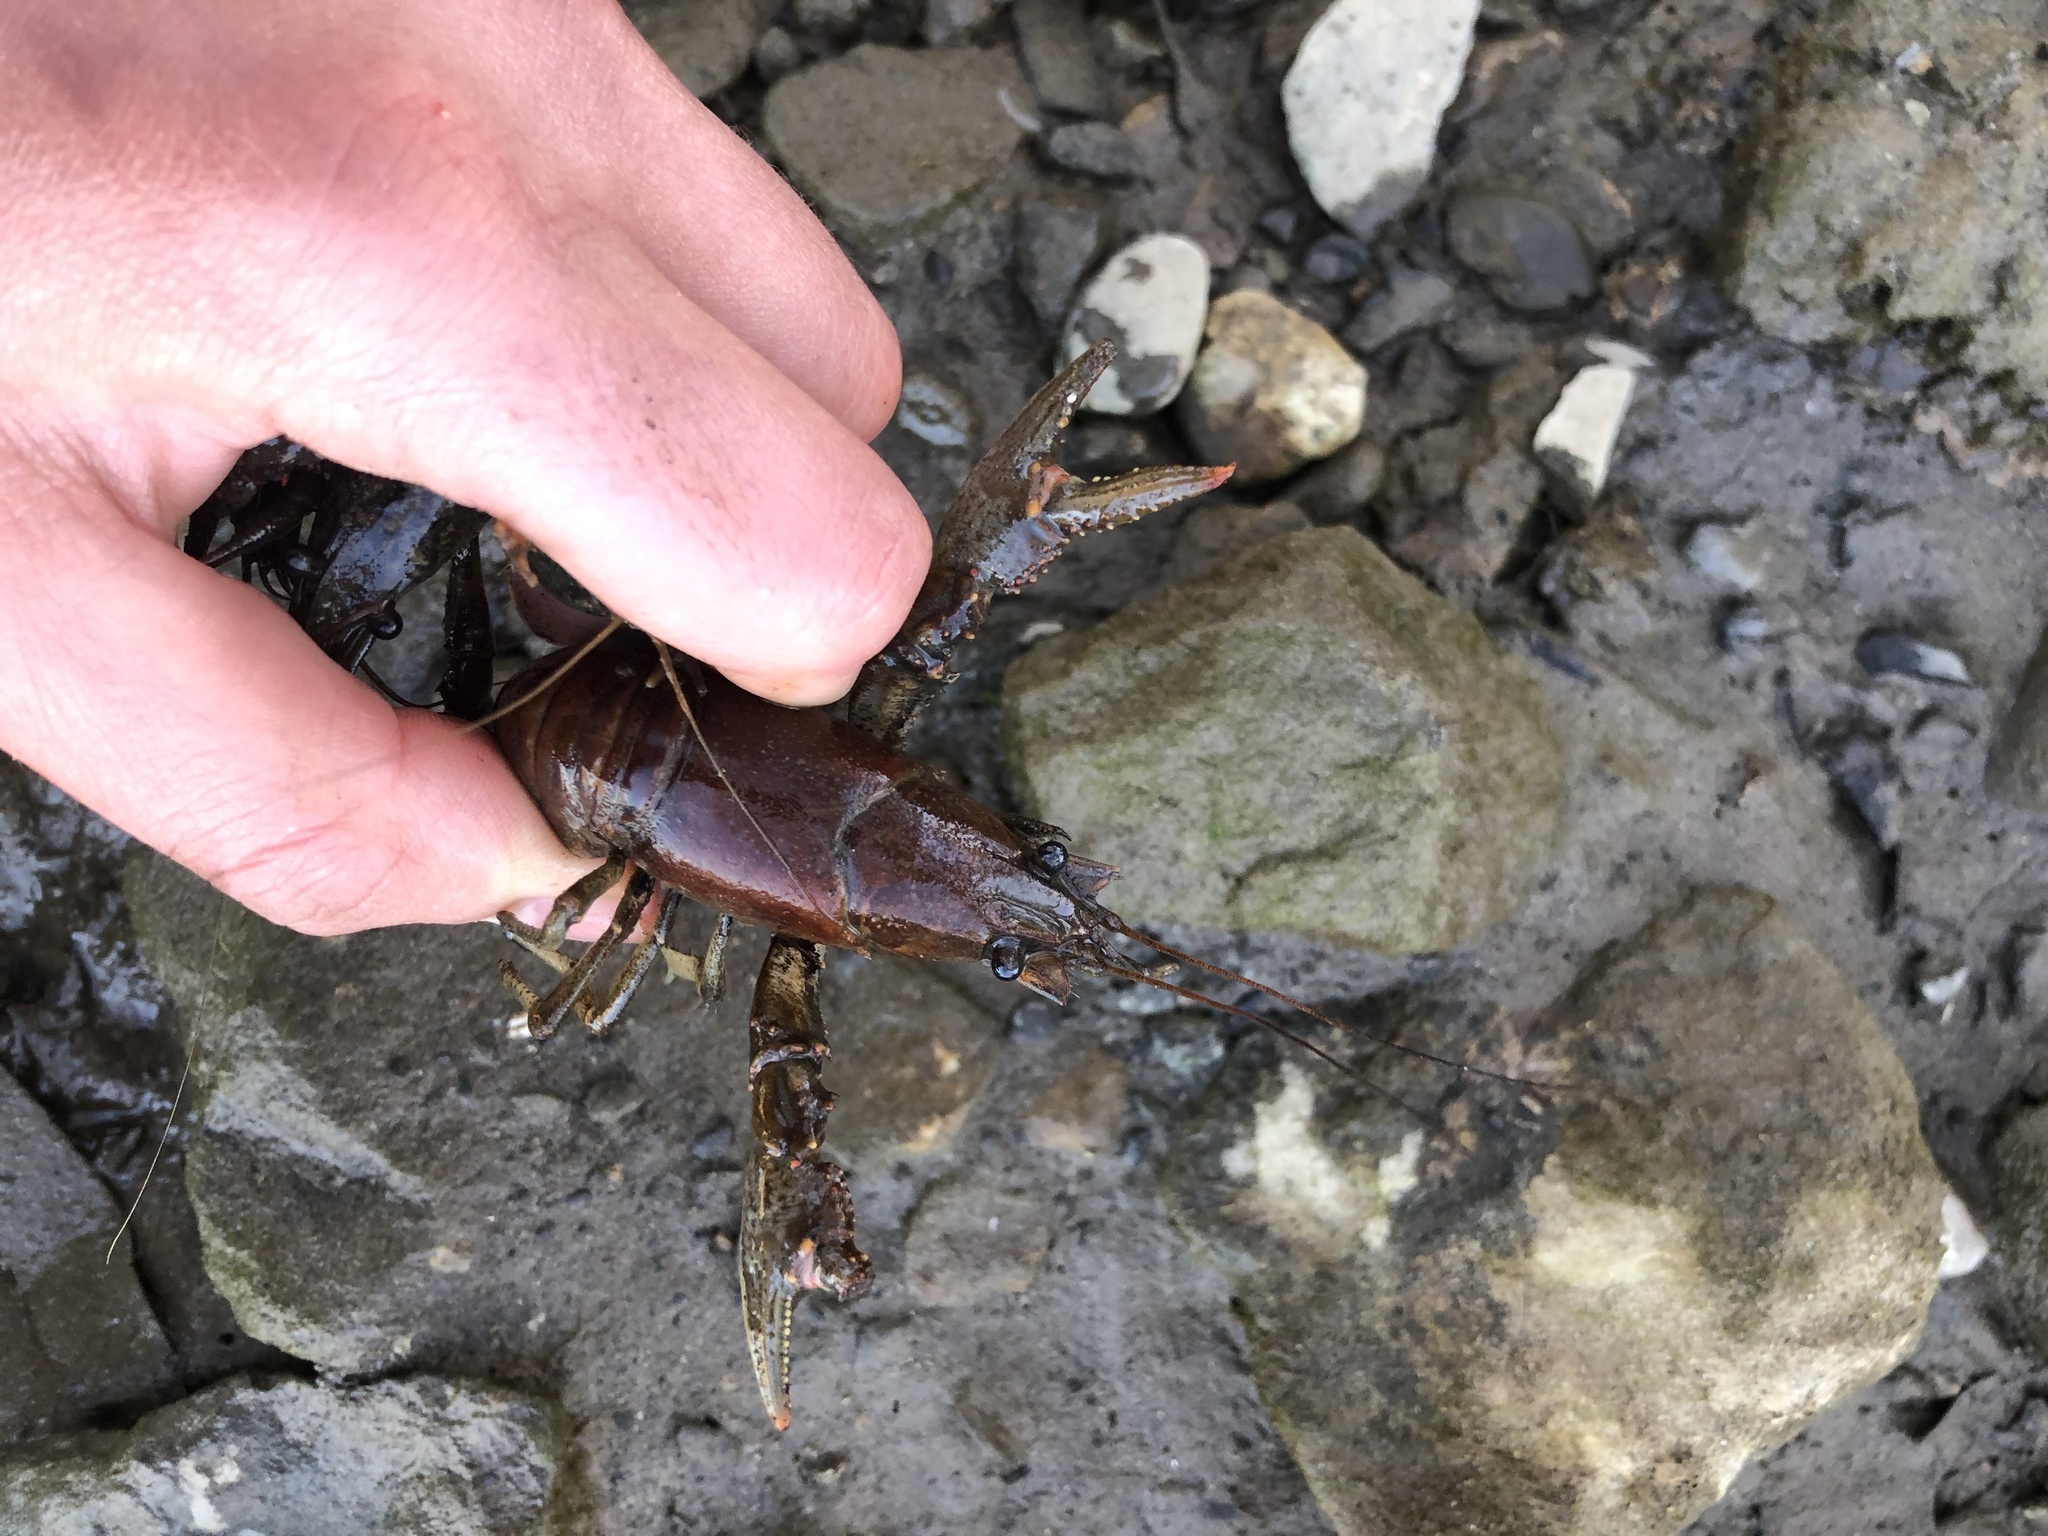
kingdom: Animalia
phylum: Arthropoda
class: Malacostraca
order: Decapoda
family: Cambaridae
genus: Faxonius
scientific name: Faxonius virilis
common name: Virile crayfish
